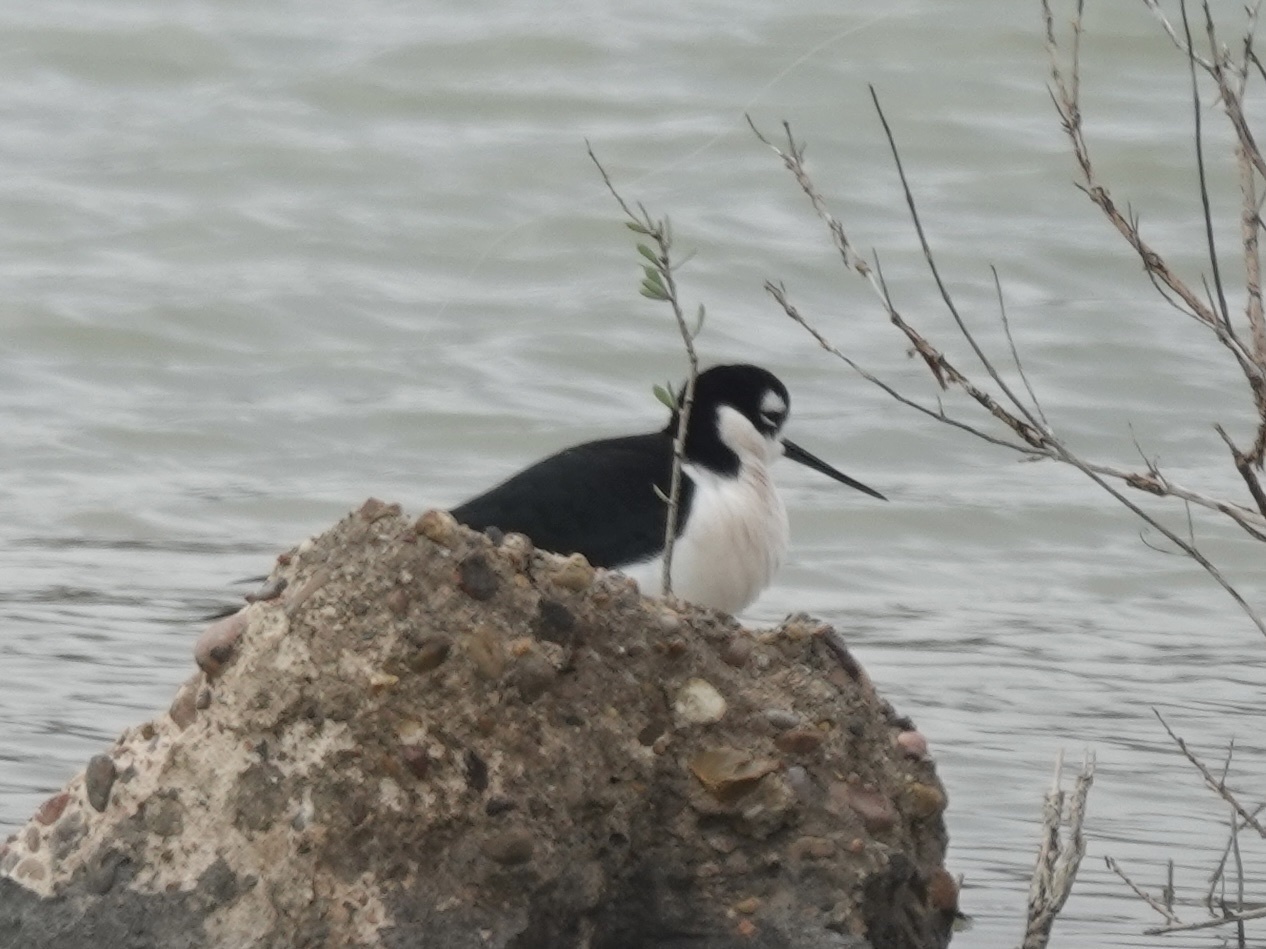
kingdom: Animalia
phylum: Chordata
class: Aves
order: Charadriiformes
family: Recurvirostridae
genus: Himantopus
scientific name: Himantopus mexicanus
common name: Black-necked stilt
